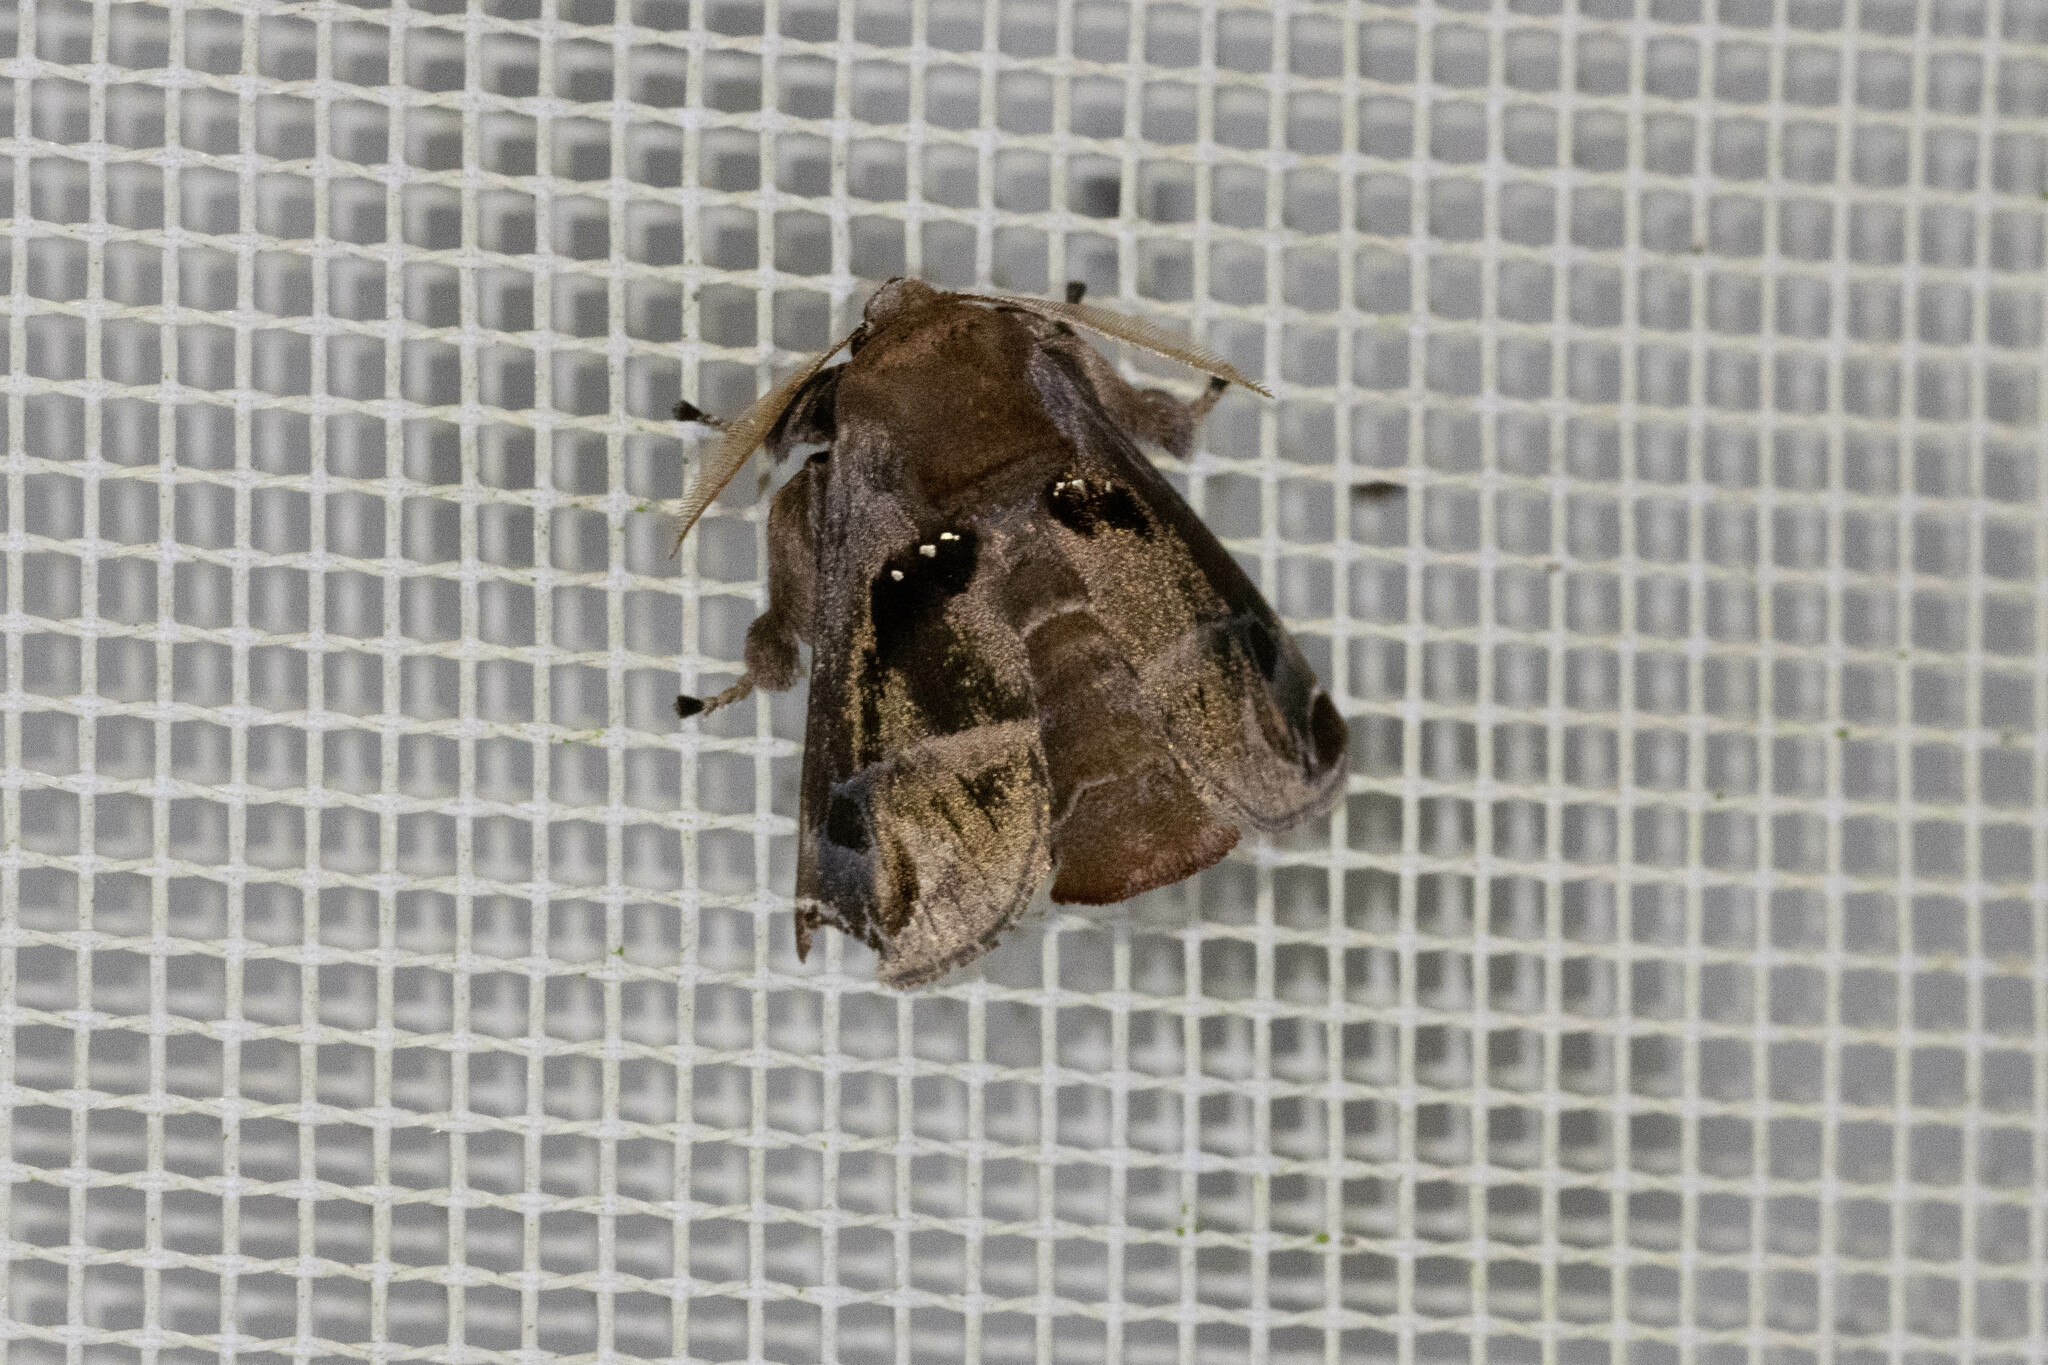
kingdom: Animalia
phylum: Arthropoda
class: Insecta
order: Lepidoptera
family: Limacodidae
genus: Semyra
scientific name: Semyra irena
